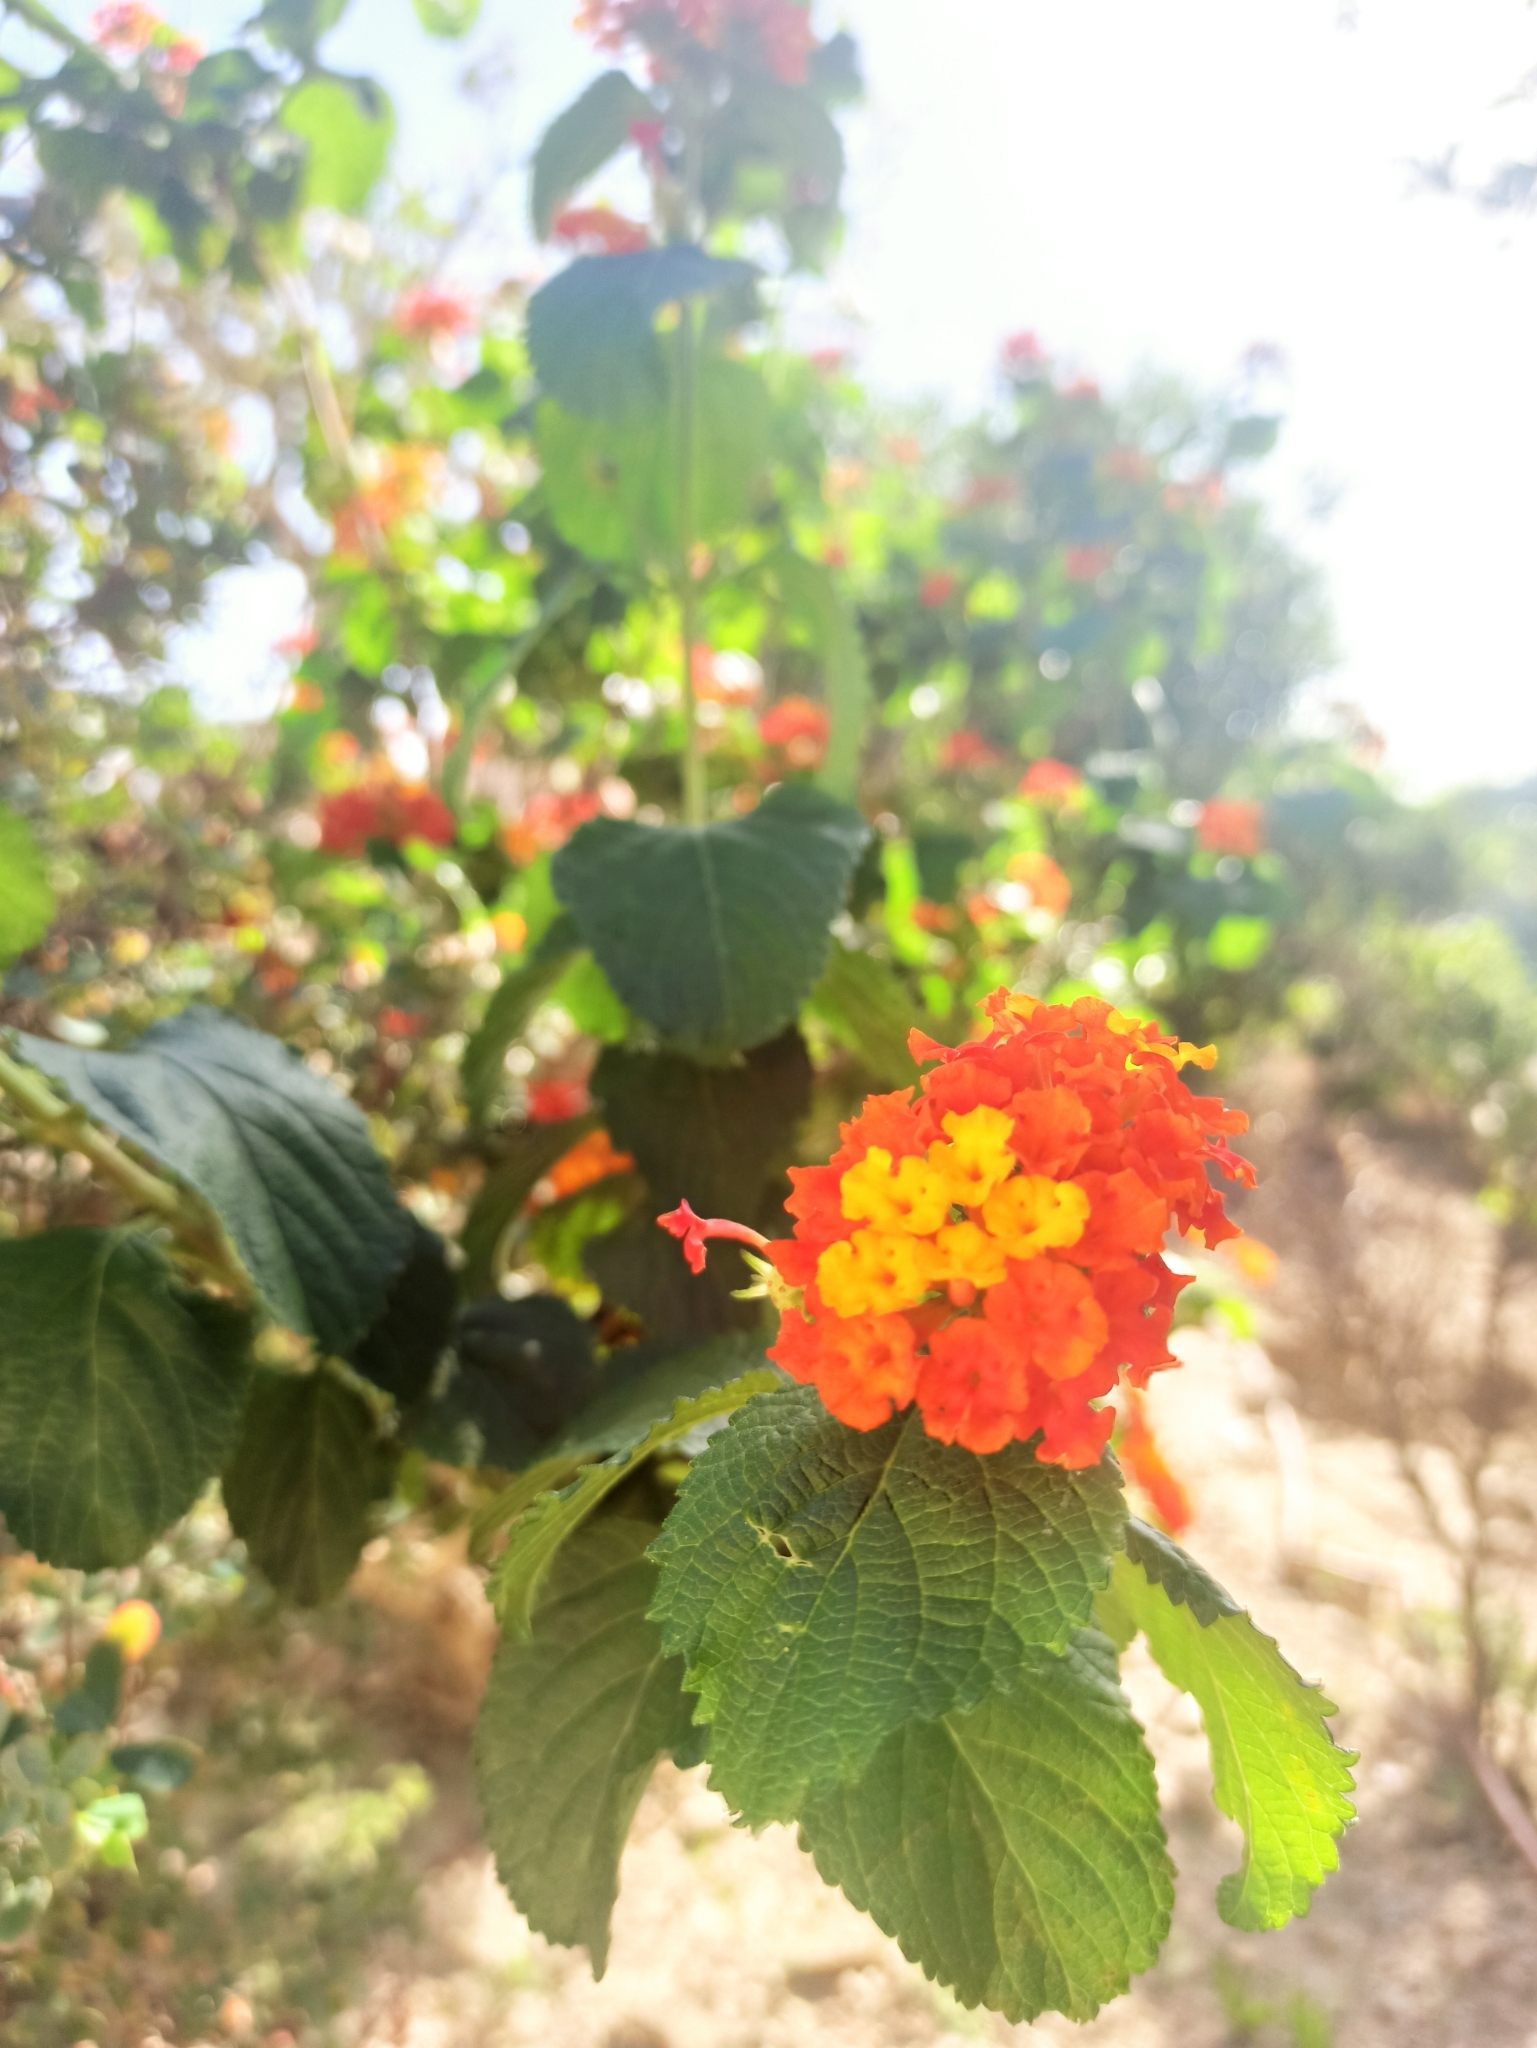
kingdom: Plantae
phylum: Tracheophyta
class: Magnoliopsida
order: Lamiales
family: Verbenaceae
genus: Lantana
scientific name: Lantana camara
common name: Lantana
